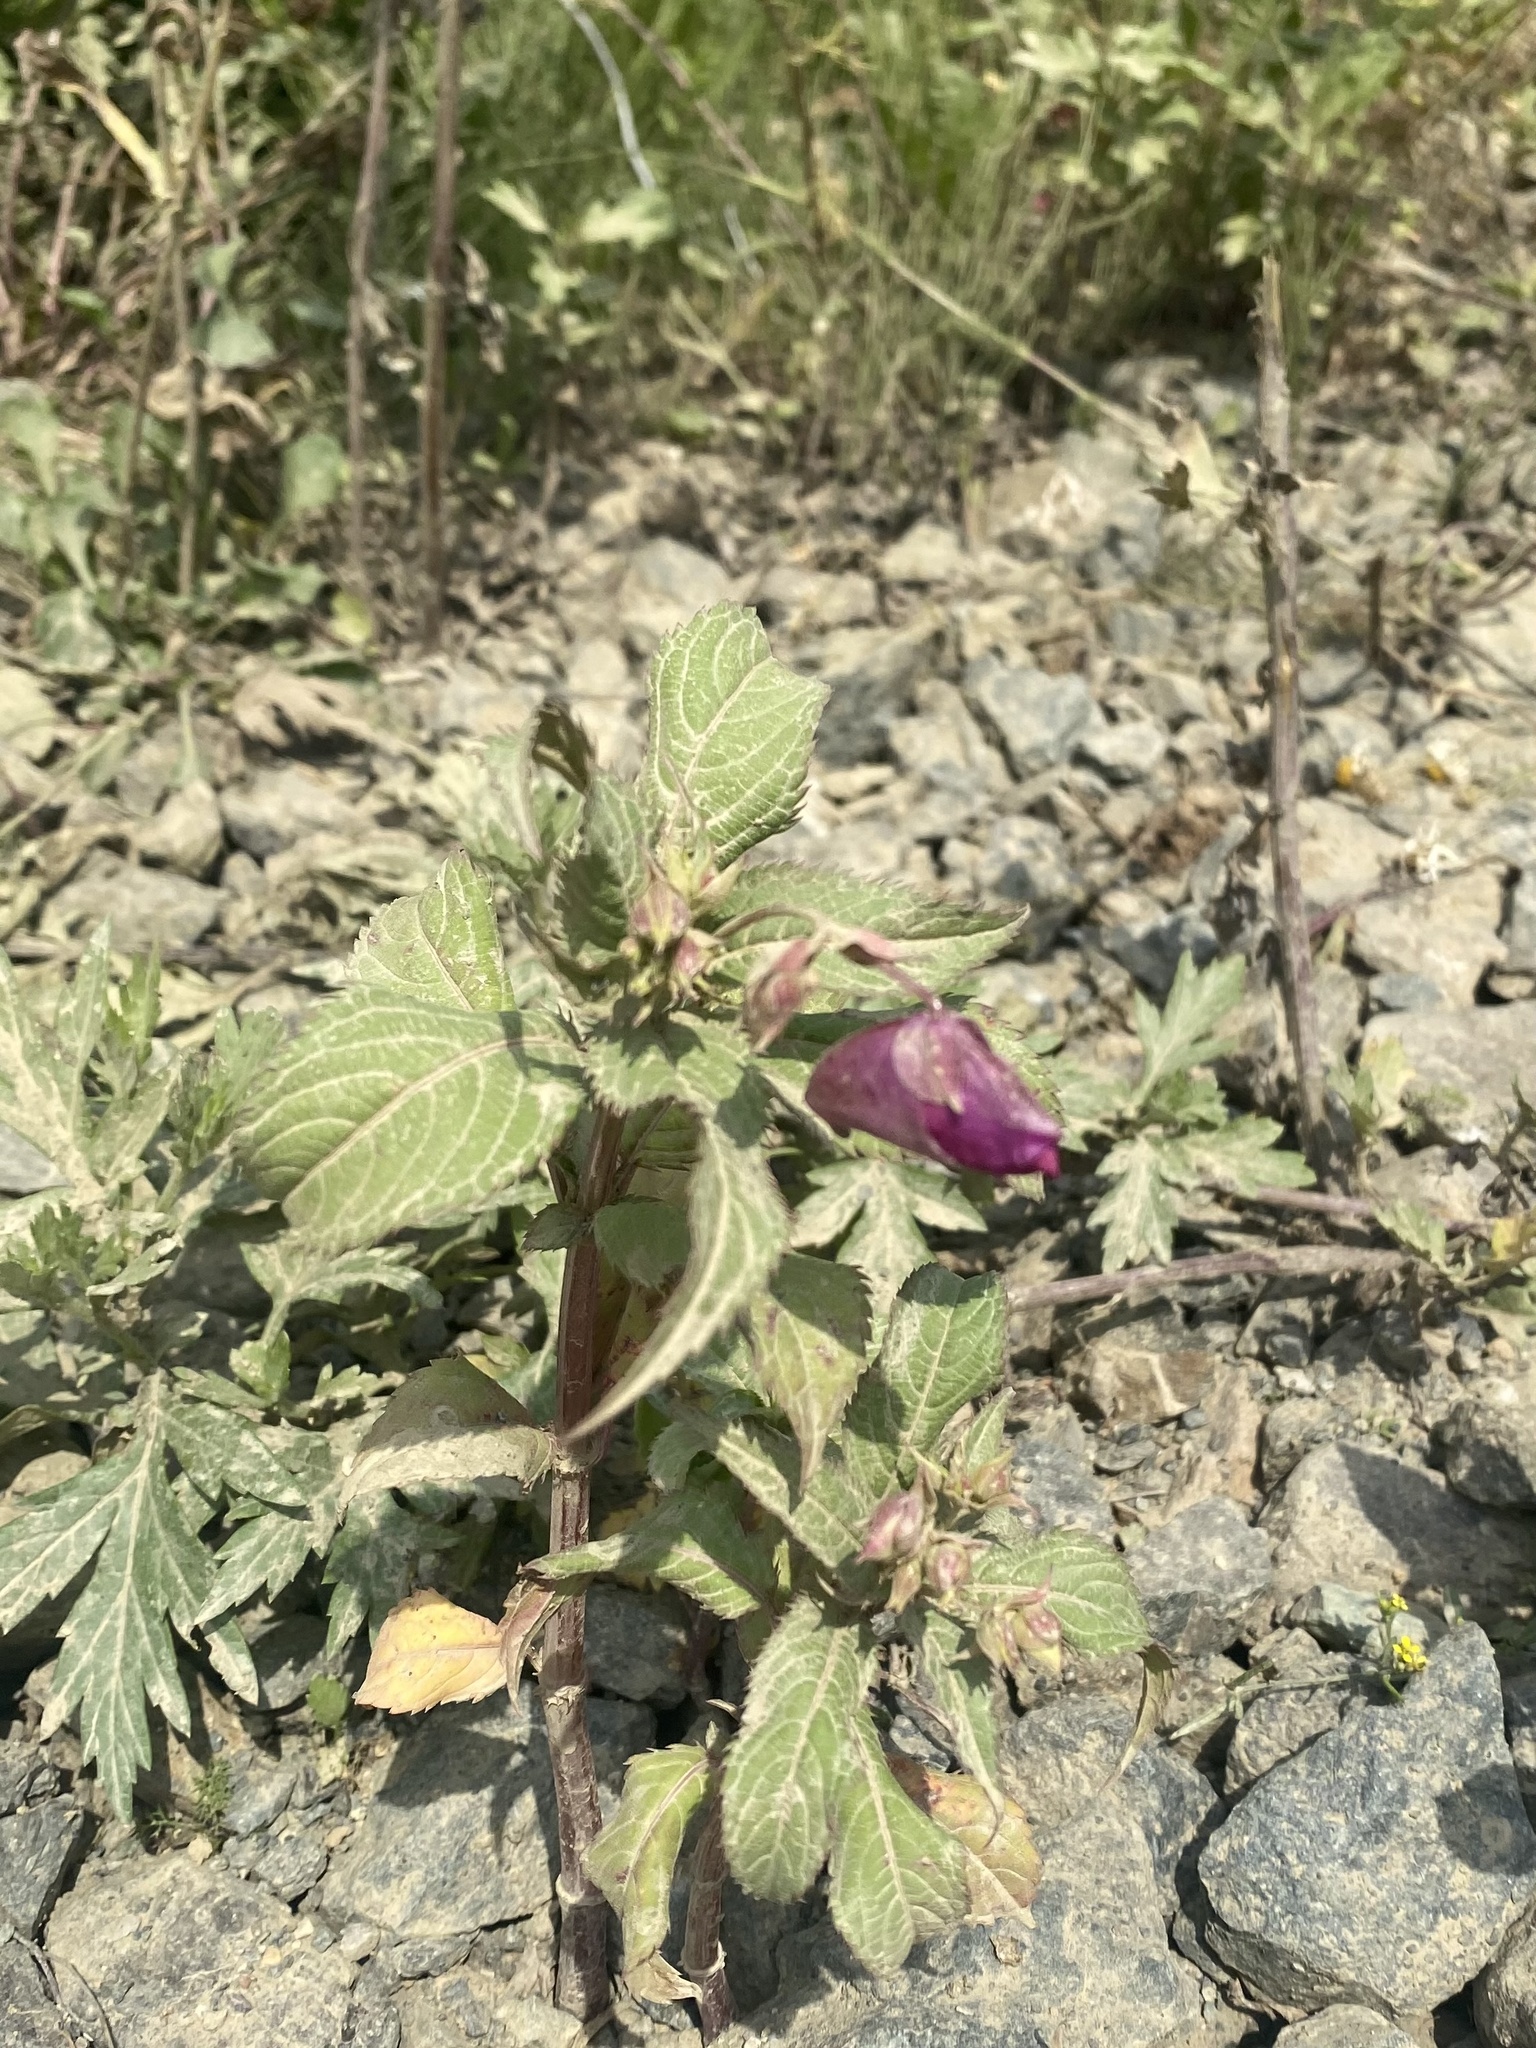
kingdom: Plantae
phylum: Tracheophyta
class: Magnoliopsida
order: Ericales
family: Balsaminaceae
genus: Impatiens
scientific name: Impatiens glandulifera
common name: Himalayan balsam
